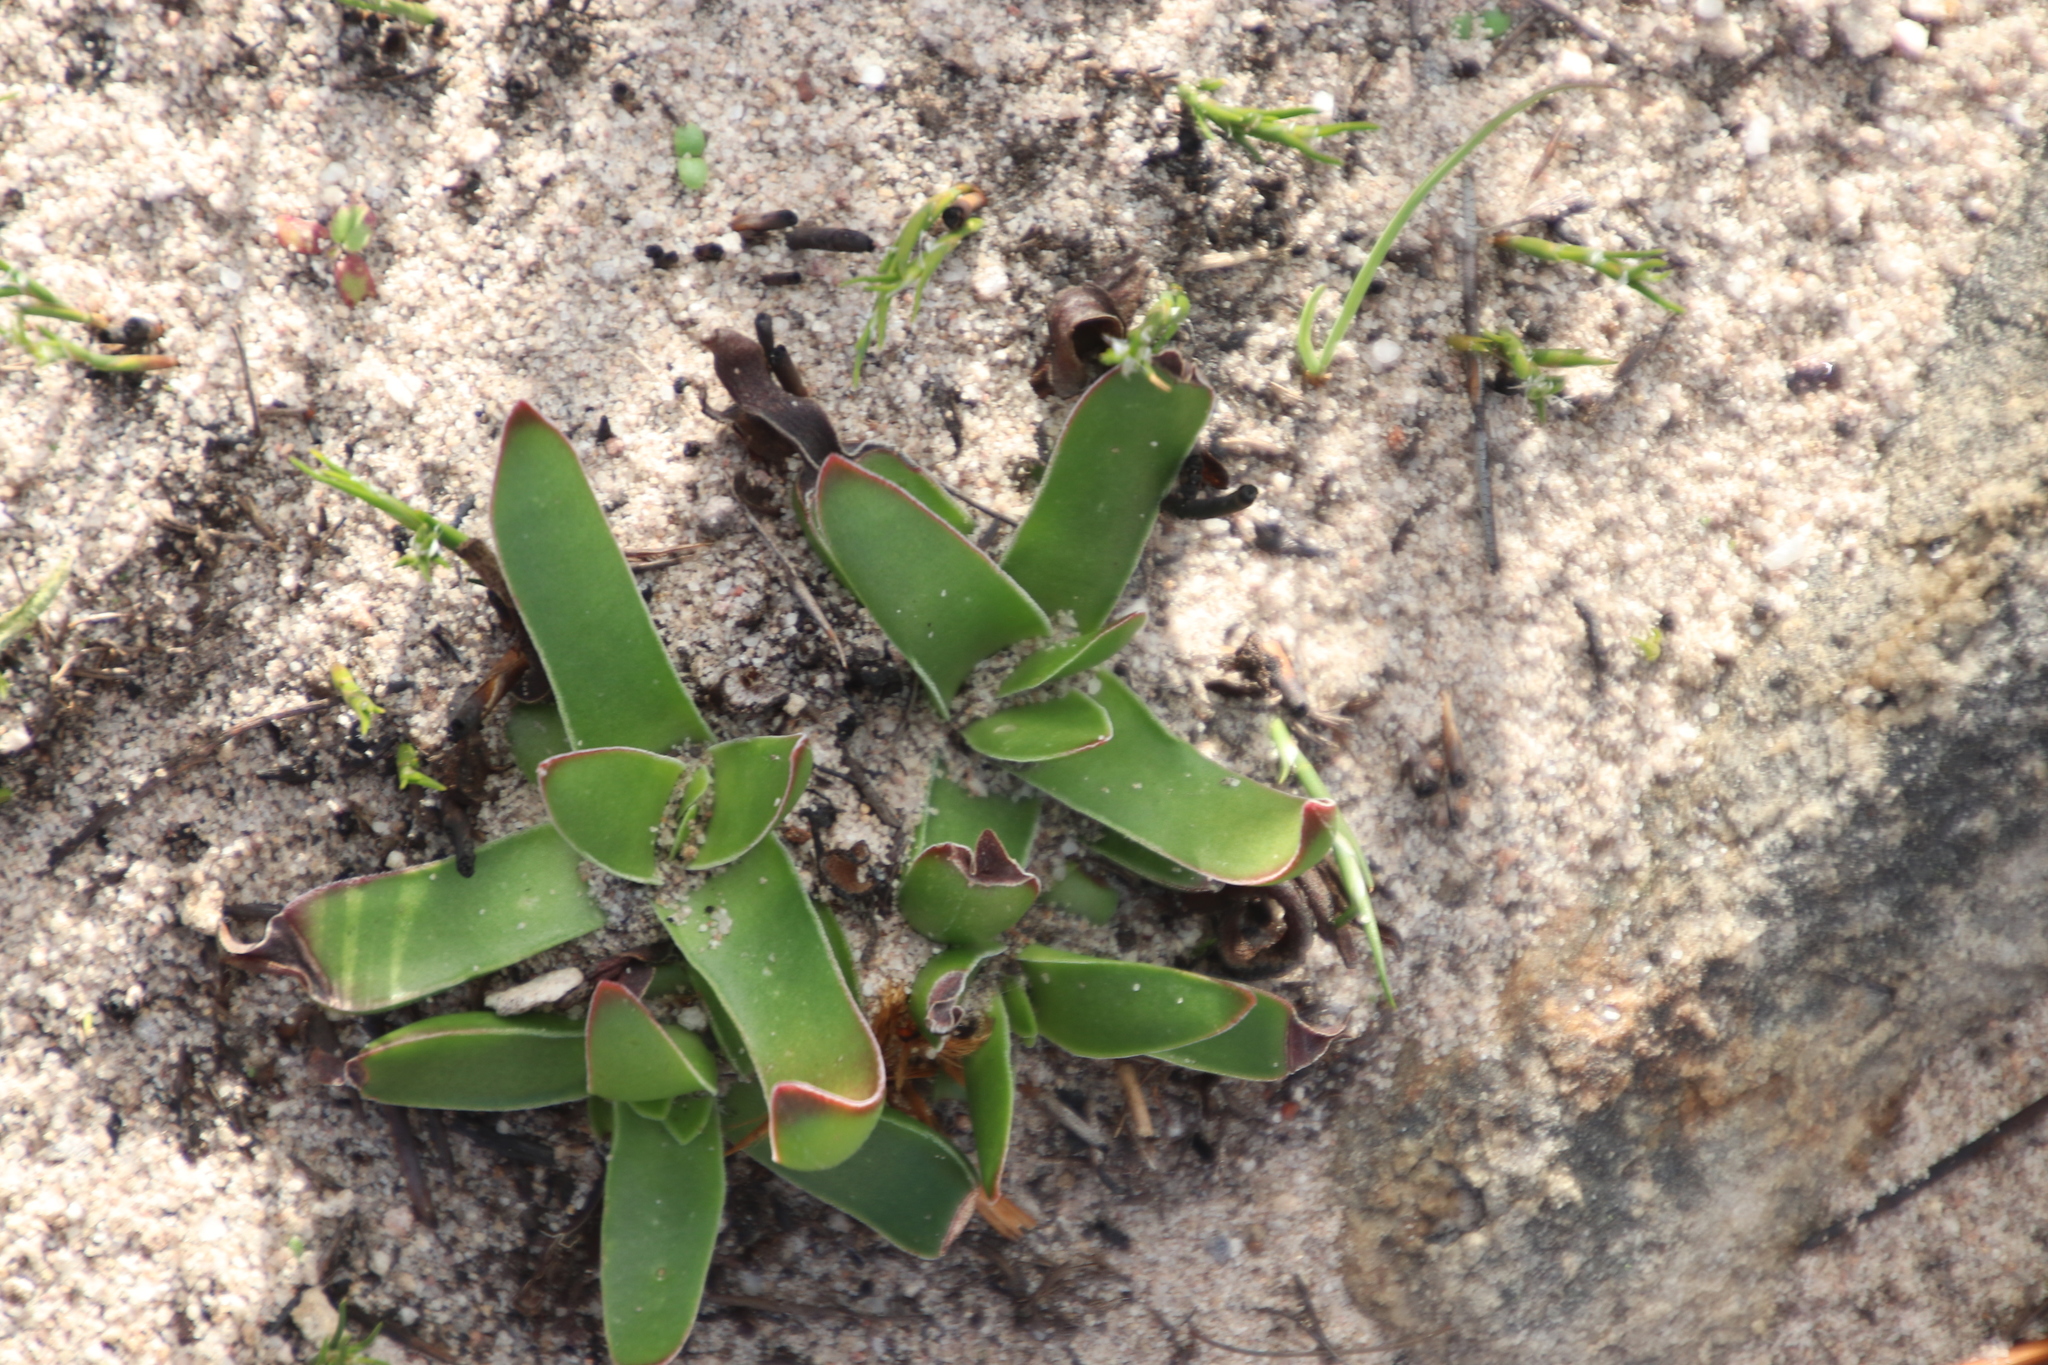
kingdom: Plantae
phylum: Tracheophyta
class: Magnoliopsida
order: Saxifragales
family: Crassulaceae
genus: Crassula
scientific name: Crassula nudicaulis
